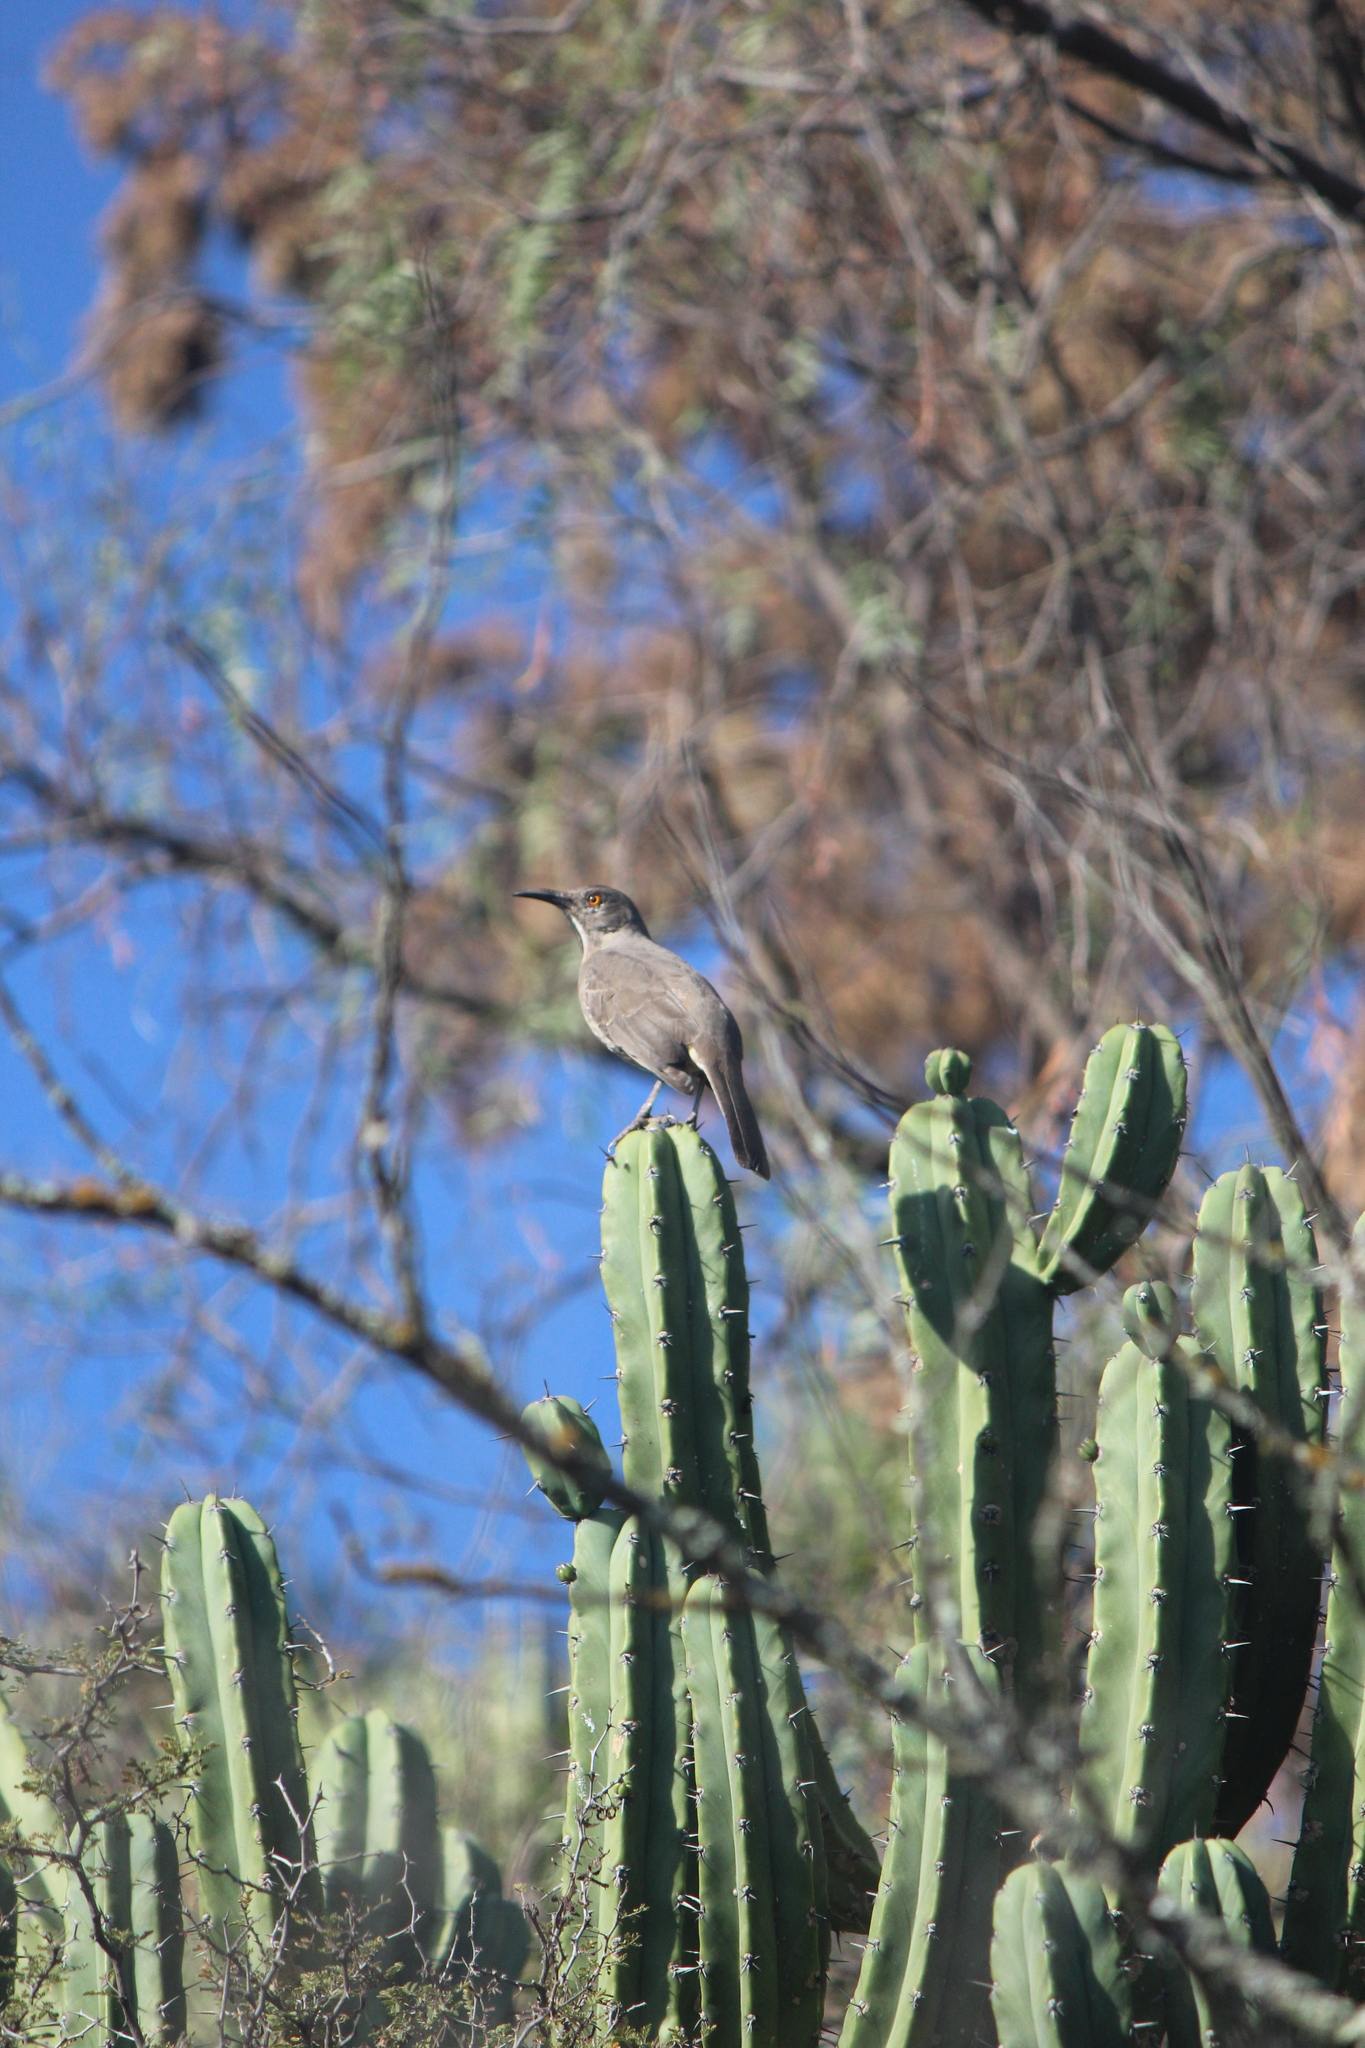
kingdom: Animalia
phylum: Chordata
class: Aves
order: Passeriformes
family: Mimidae
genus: Toxostoma
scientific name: Toxostoma curvirostre
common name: Curve-billed thrasher
